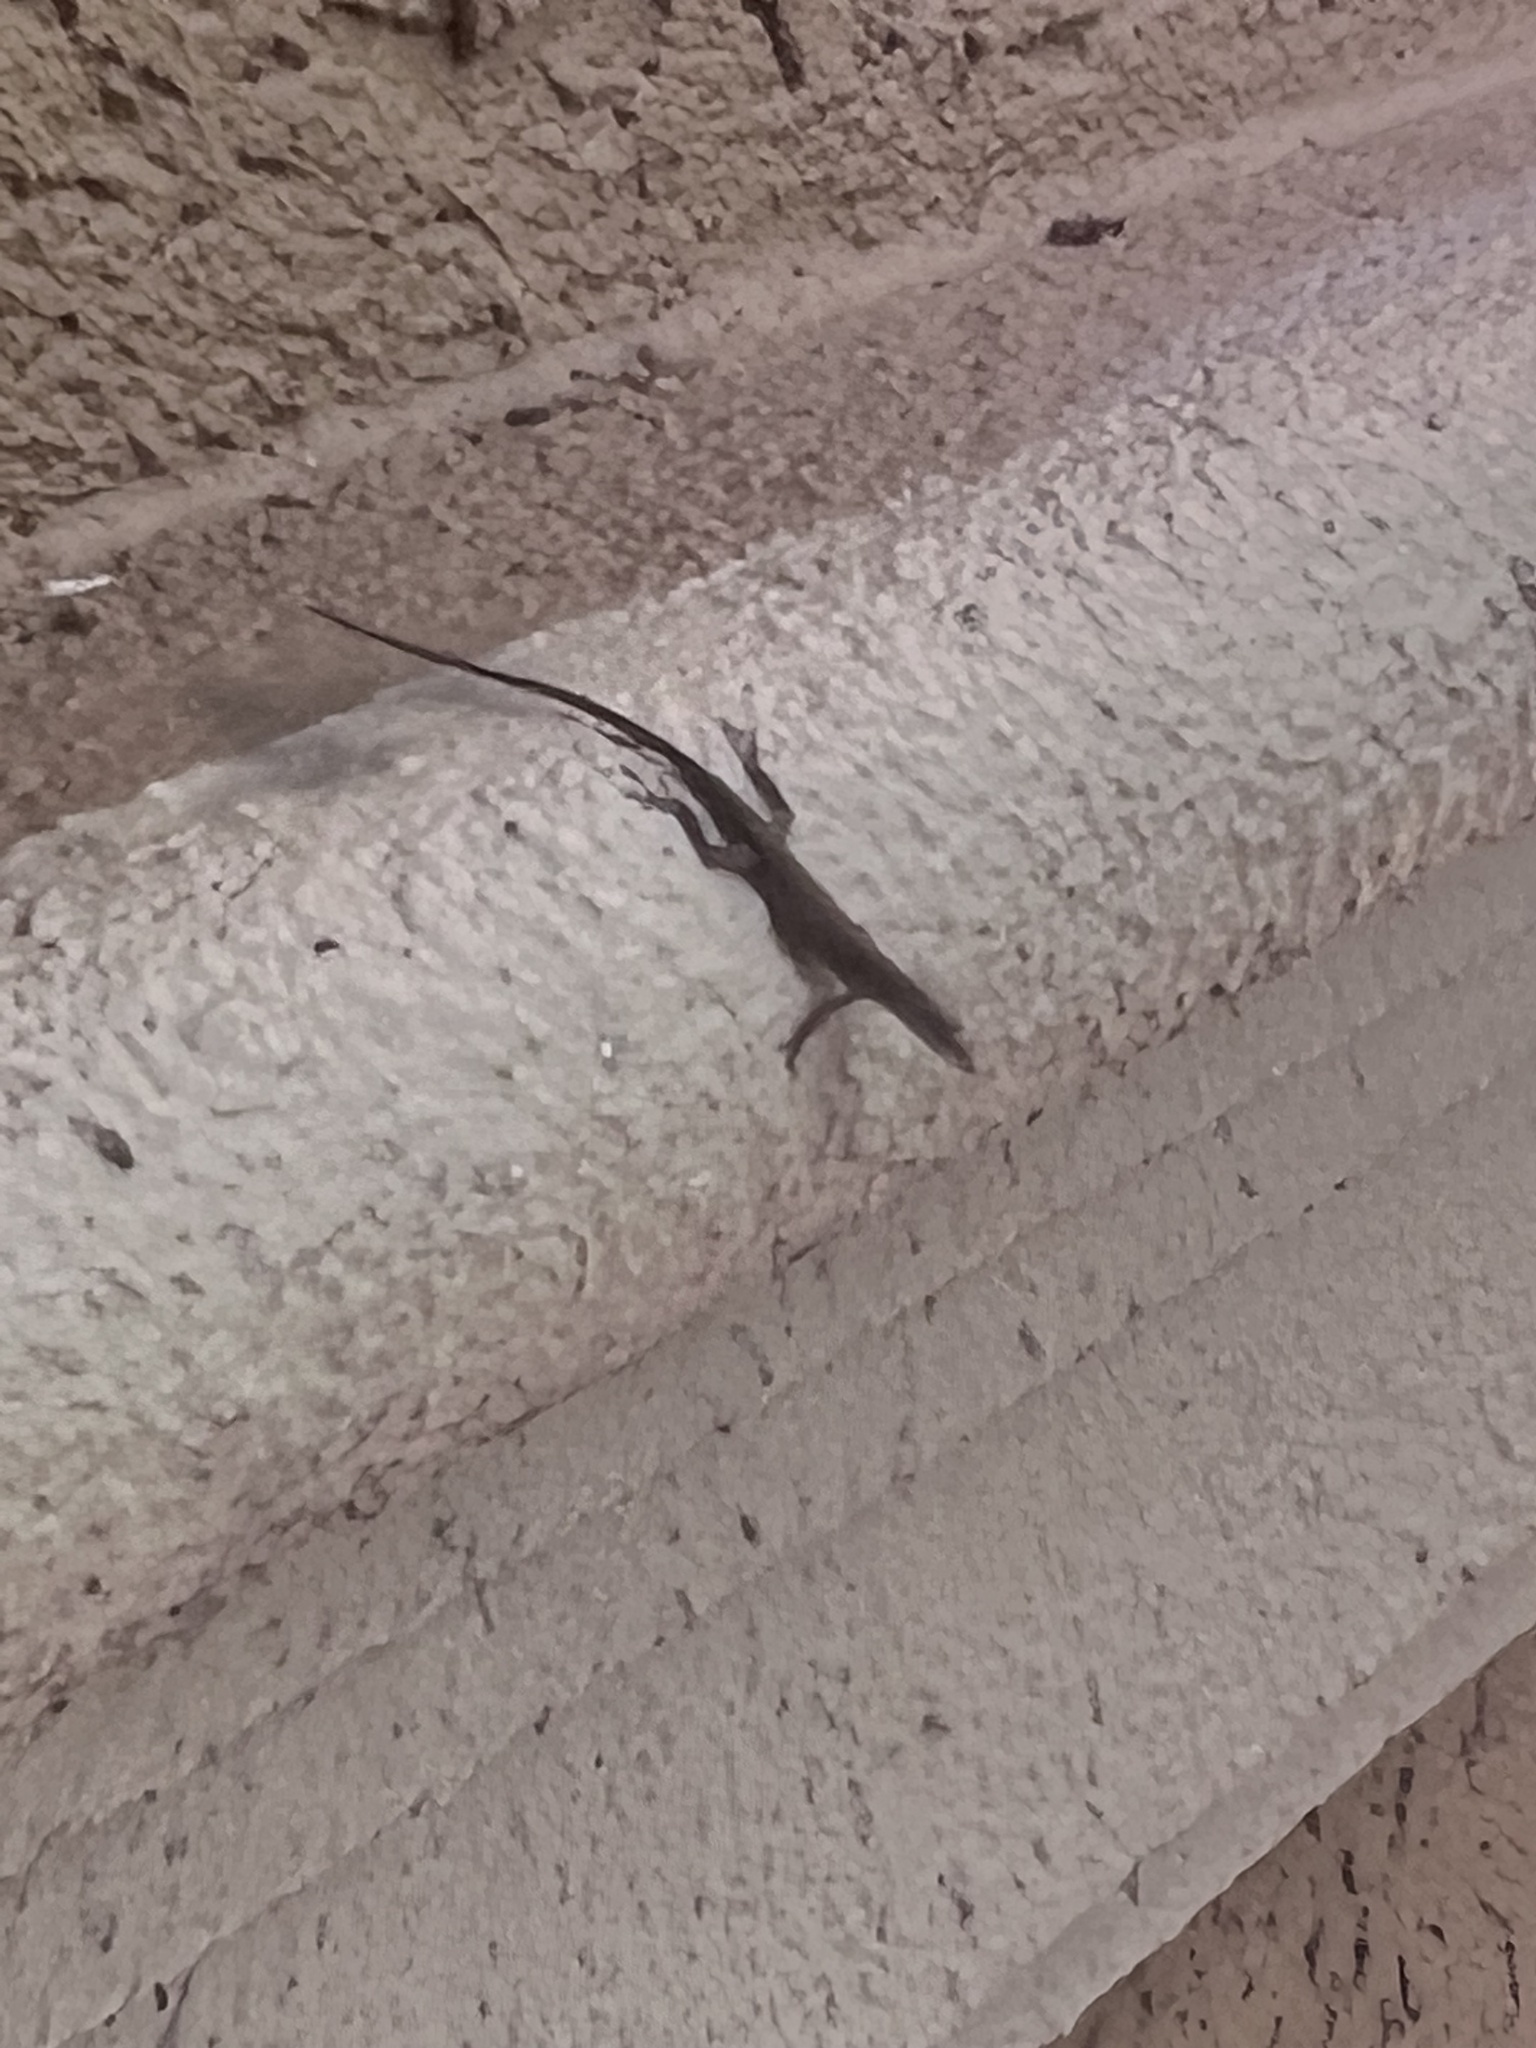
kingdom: Animalia
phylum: Chordata
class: Squamata
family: Dactyloidae
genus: Anolis
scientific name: Anolis carolinensis
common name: Green anole
